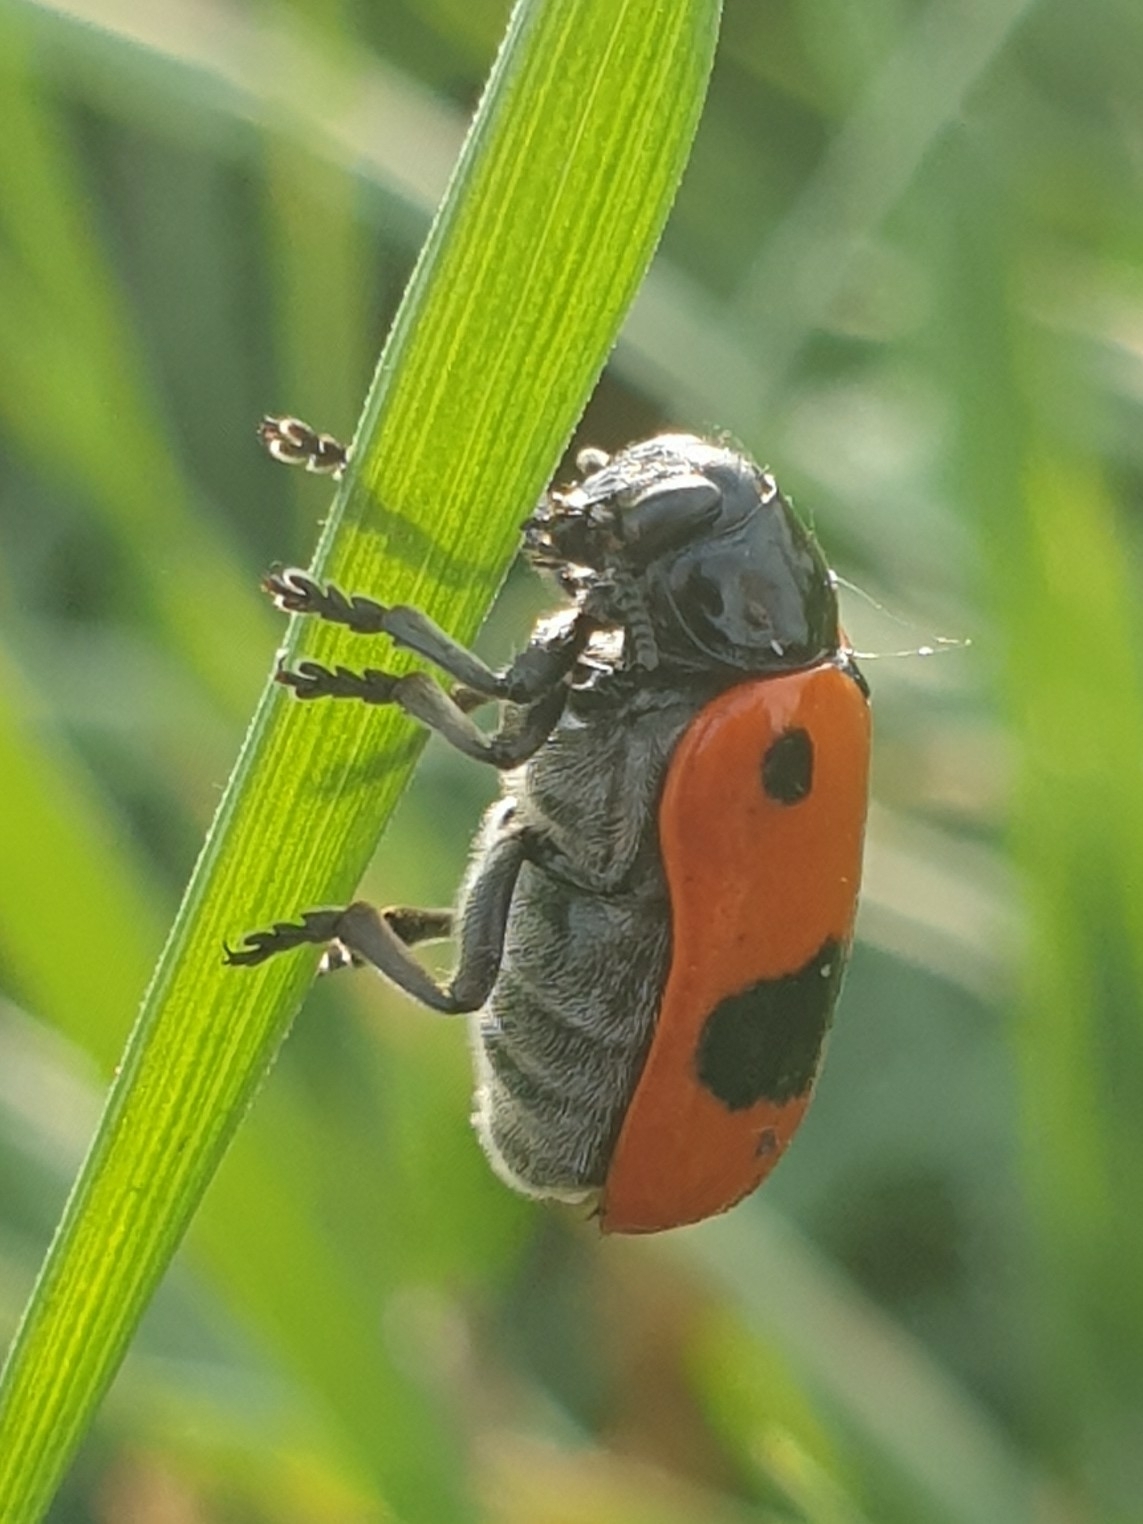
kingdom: Animalia
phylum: Arthropoda
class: Insecta
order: Coleoptera
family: Chrysomelidae
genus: Clytra
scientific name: Clytra laeviuscula
